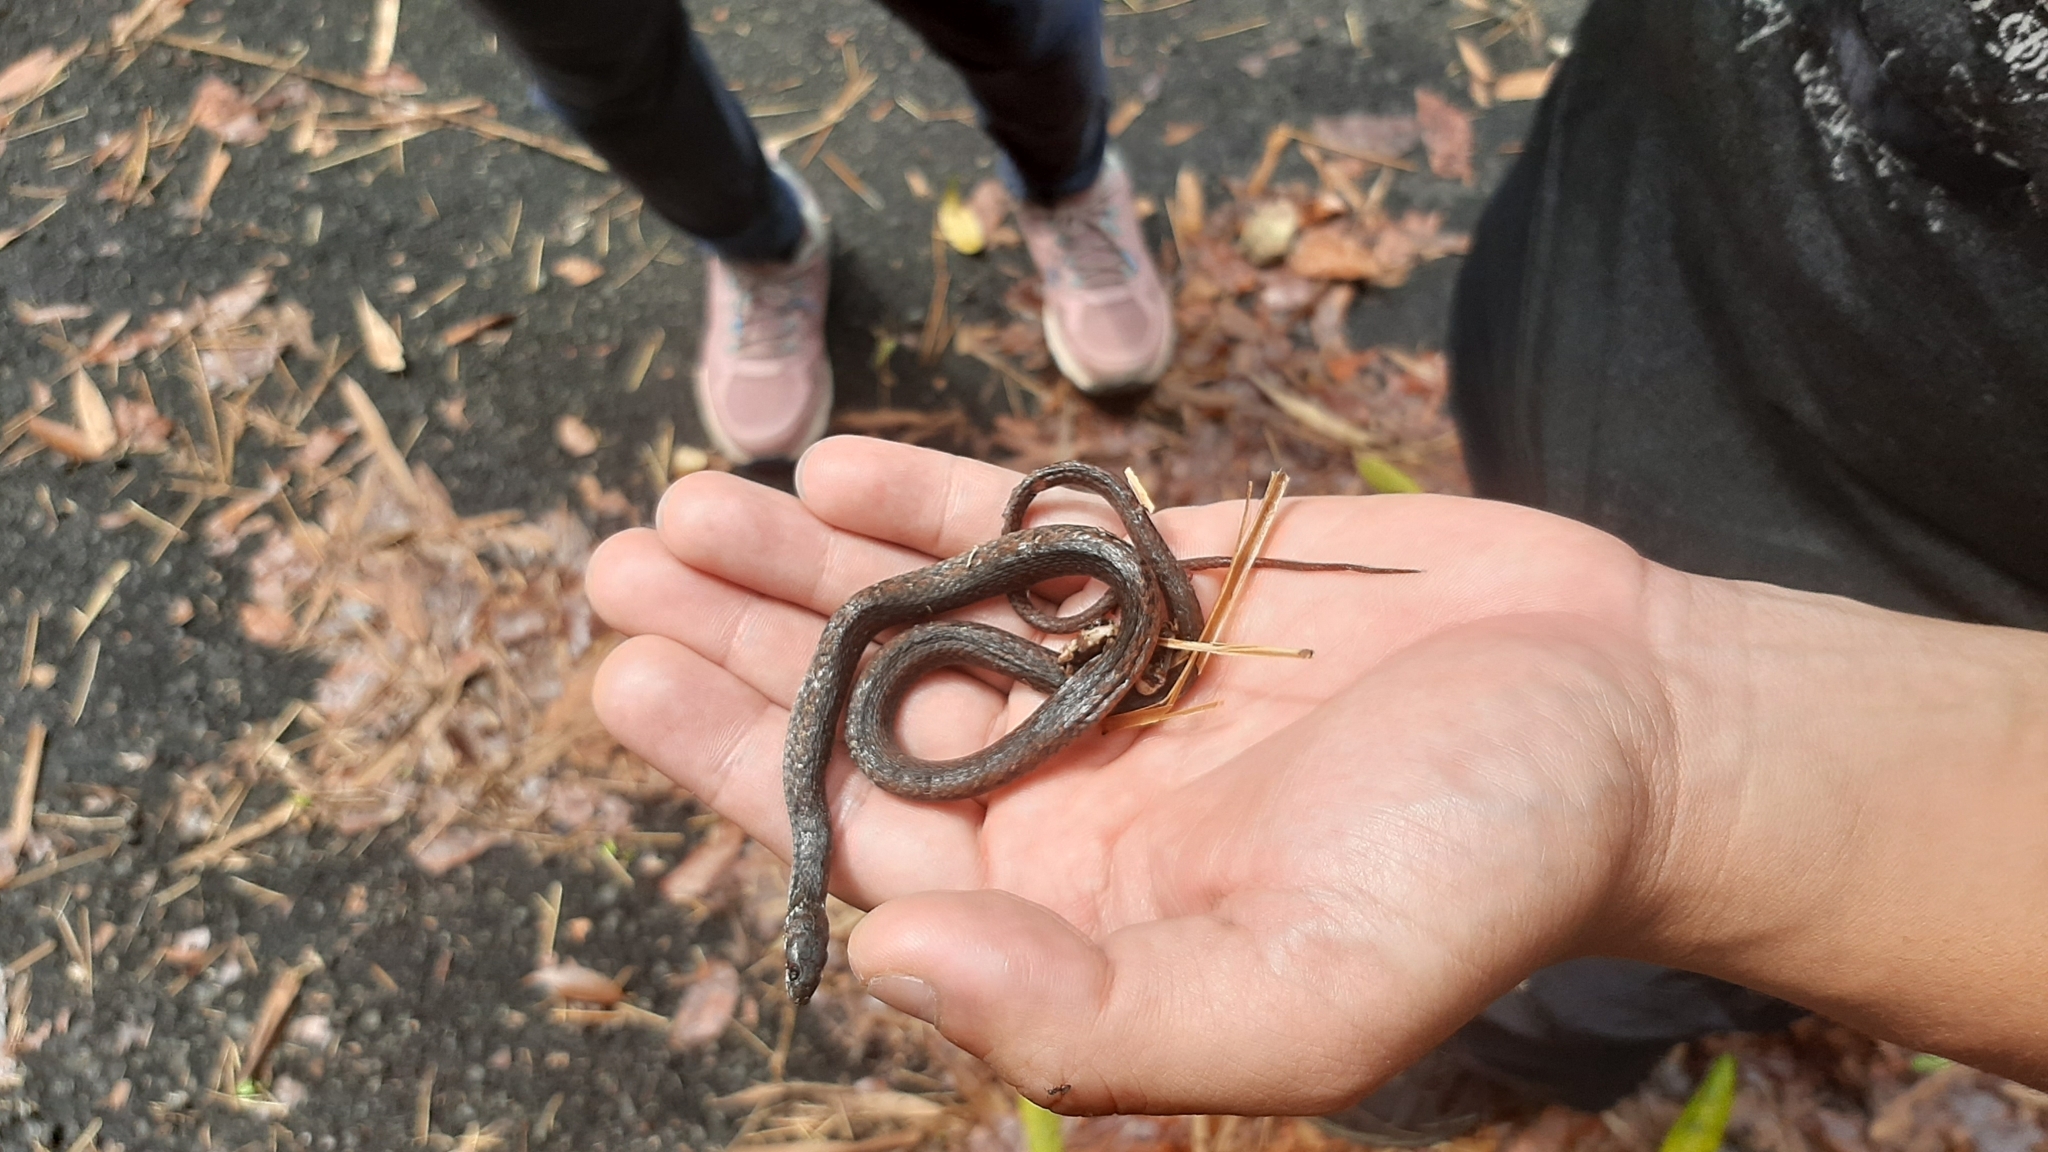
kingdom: Animalia
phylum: Chordata
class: Squamata
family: Colubridae
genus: Hebius
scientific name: Hebius sauteri
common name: Sauter's keelback
